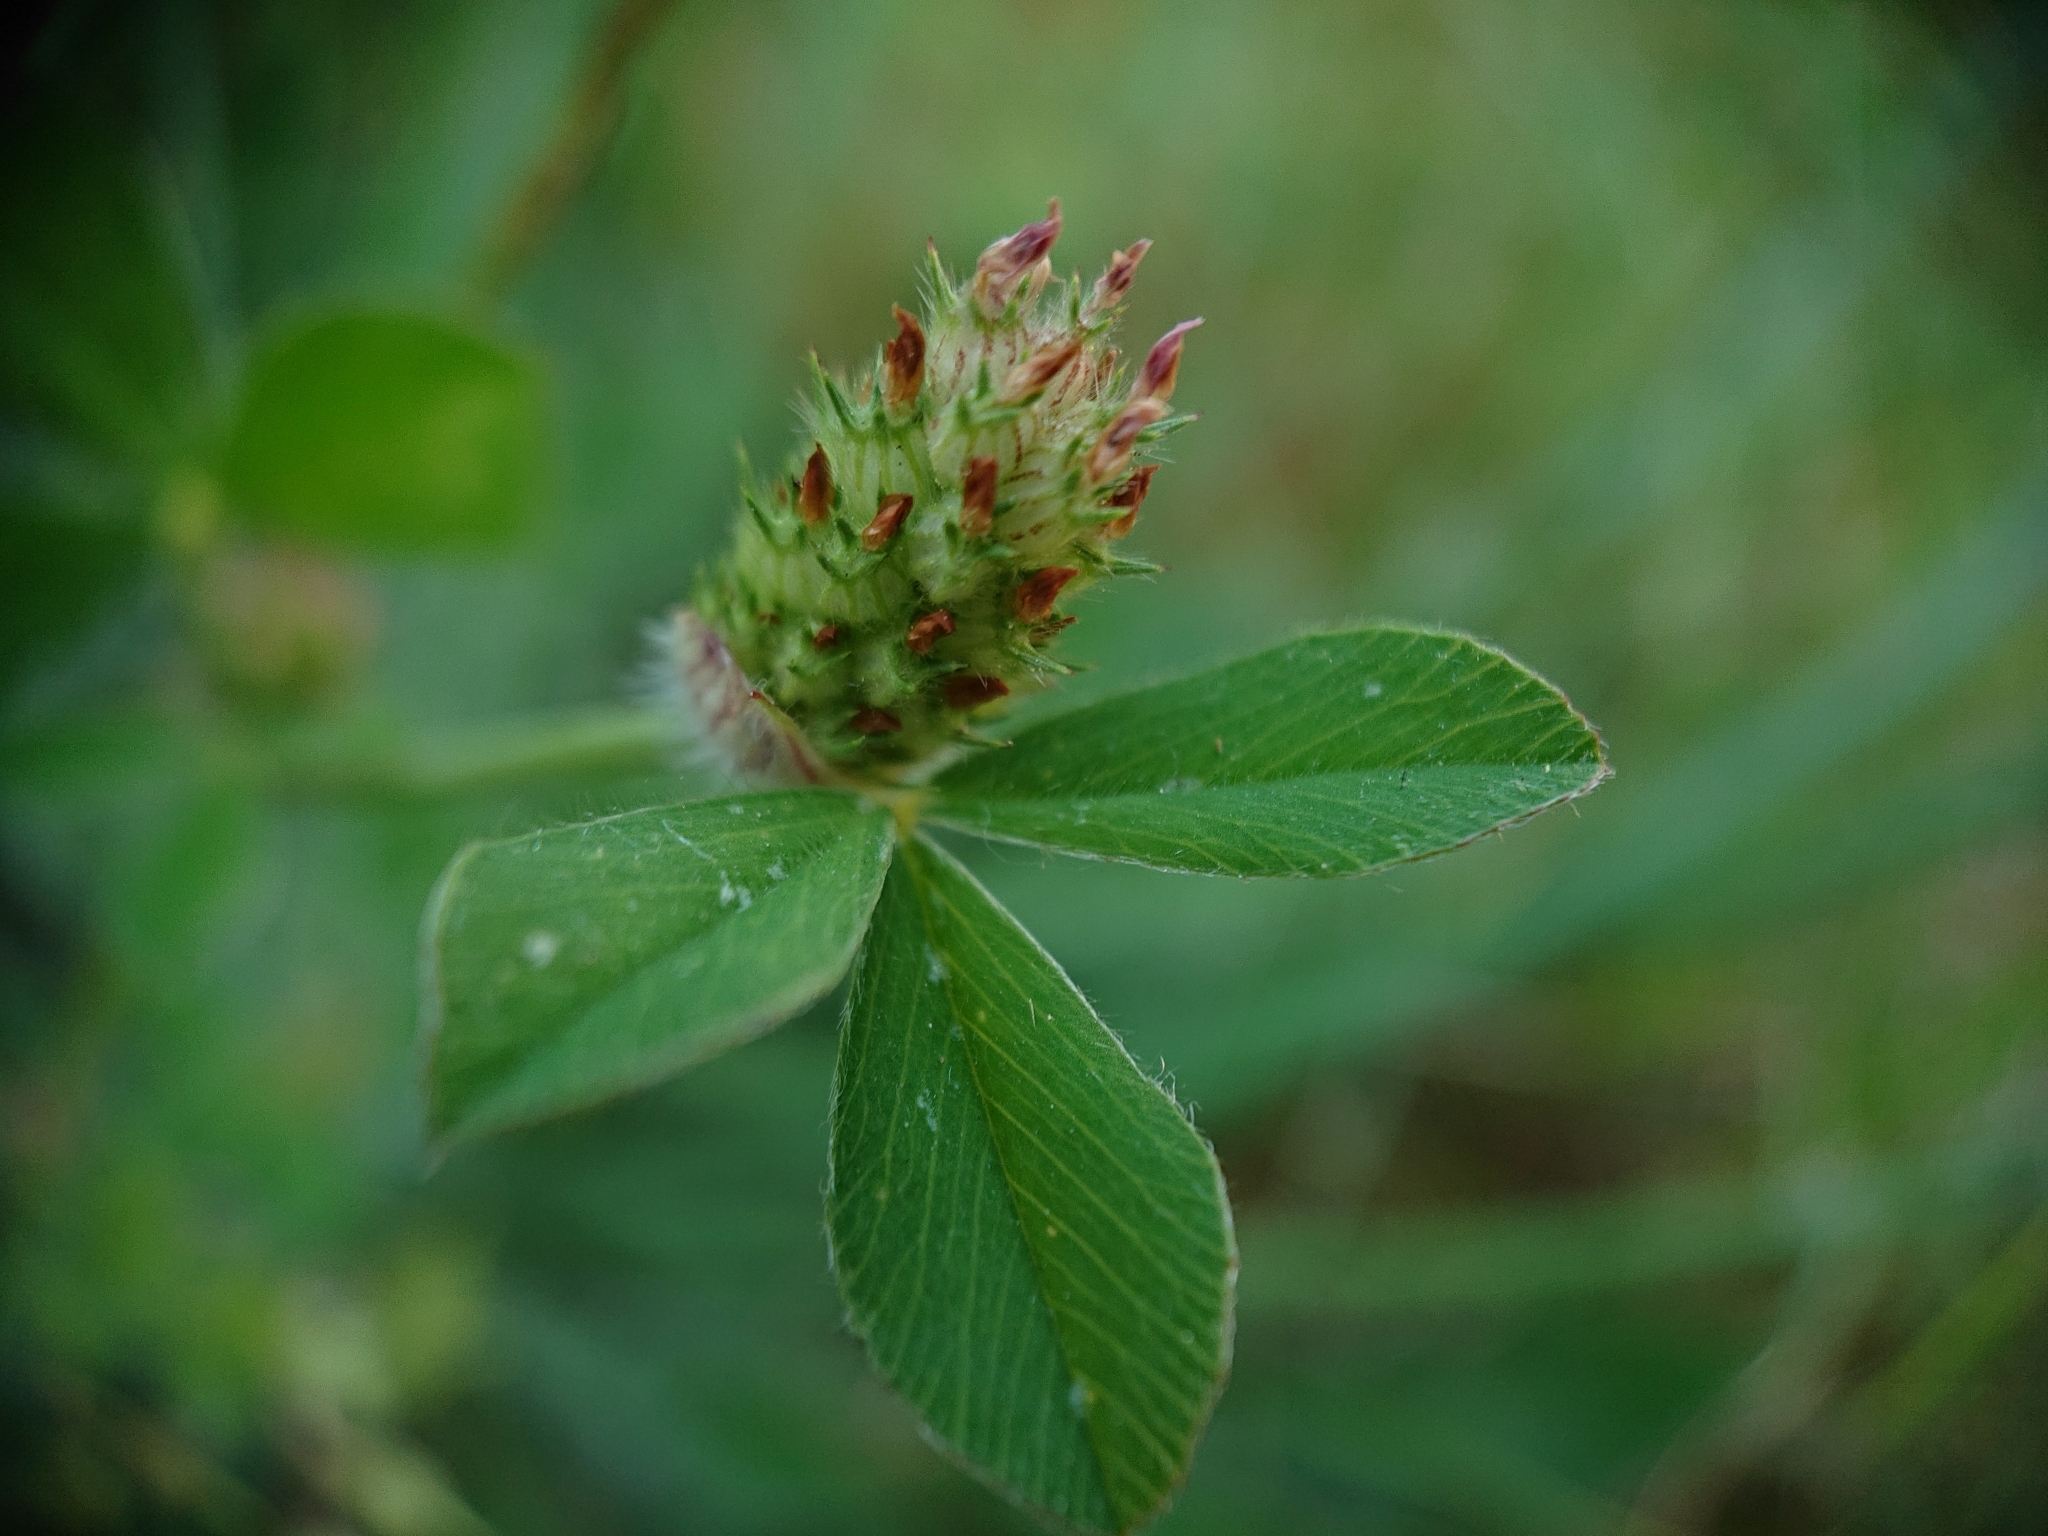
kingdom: Plantae
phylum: Tracheophyta
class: Magnoliopsida
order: Fabales
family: Fabaceae
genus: Trifolium
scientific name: Trifolium incarnatum
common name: Crimson clover
